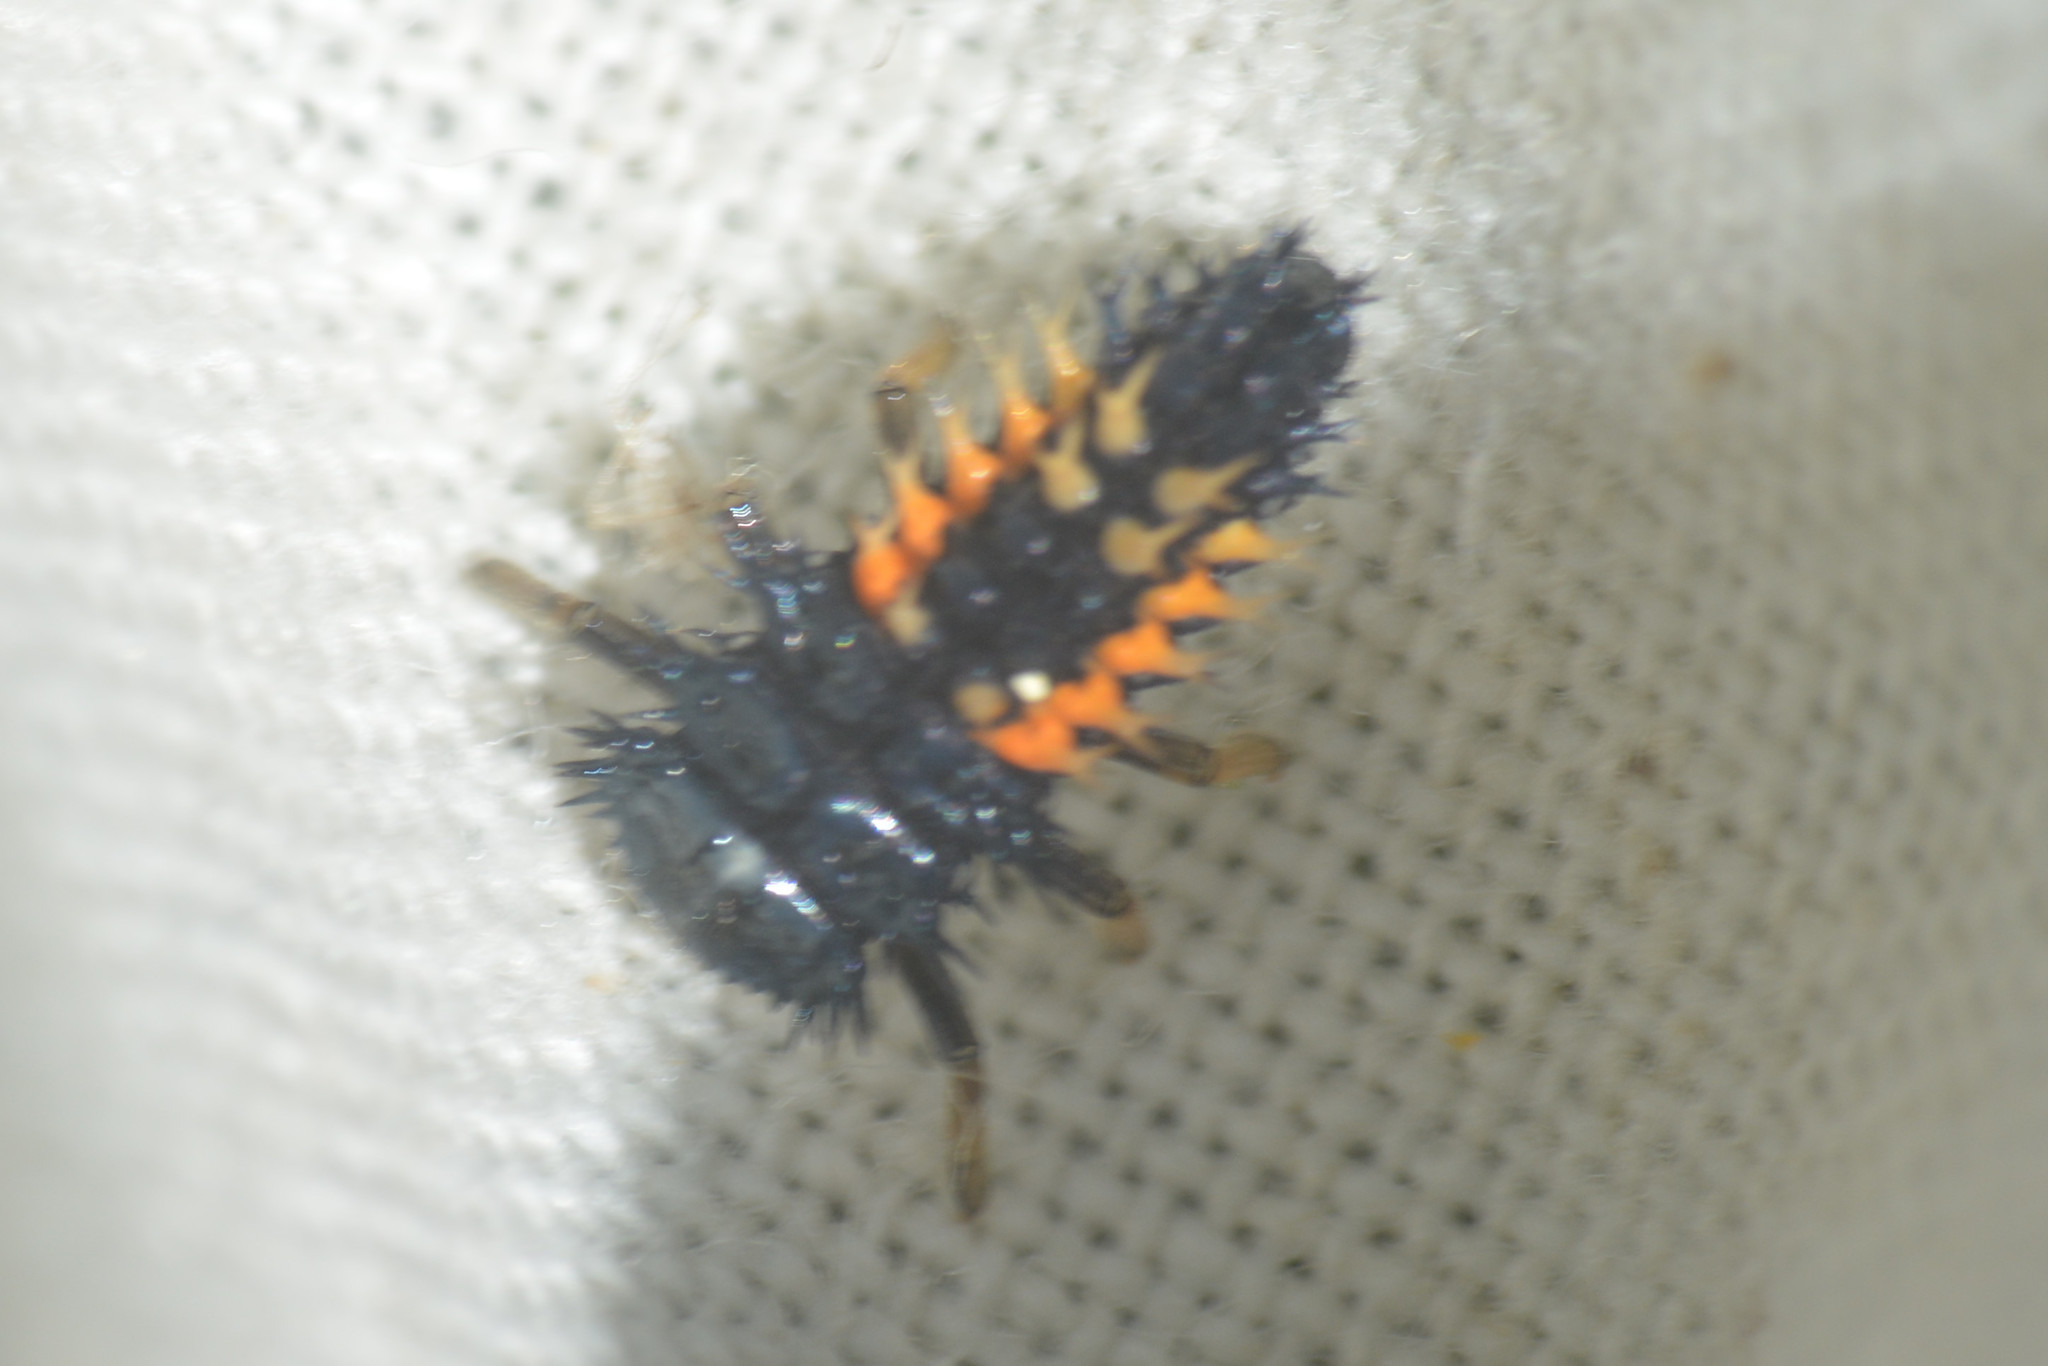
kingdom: Animalia
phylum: Arthropoda
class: Insecta
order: Coleoptera
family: Coccinellidae
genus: Harmonia
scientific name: Harmonia axyridis
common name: Harlequin ladybird
